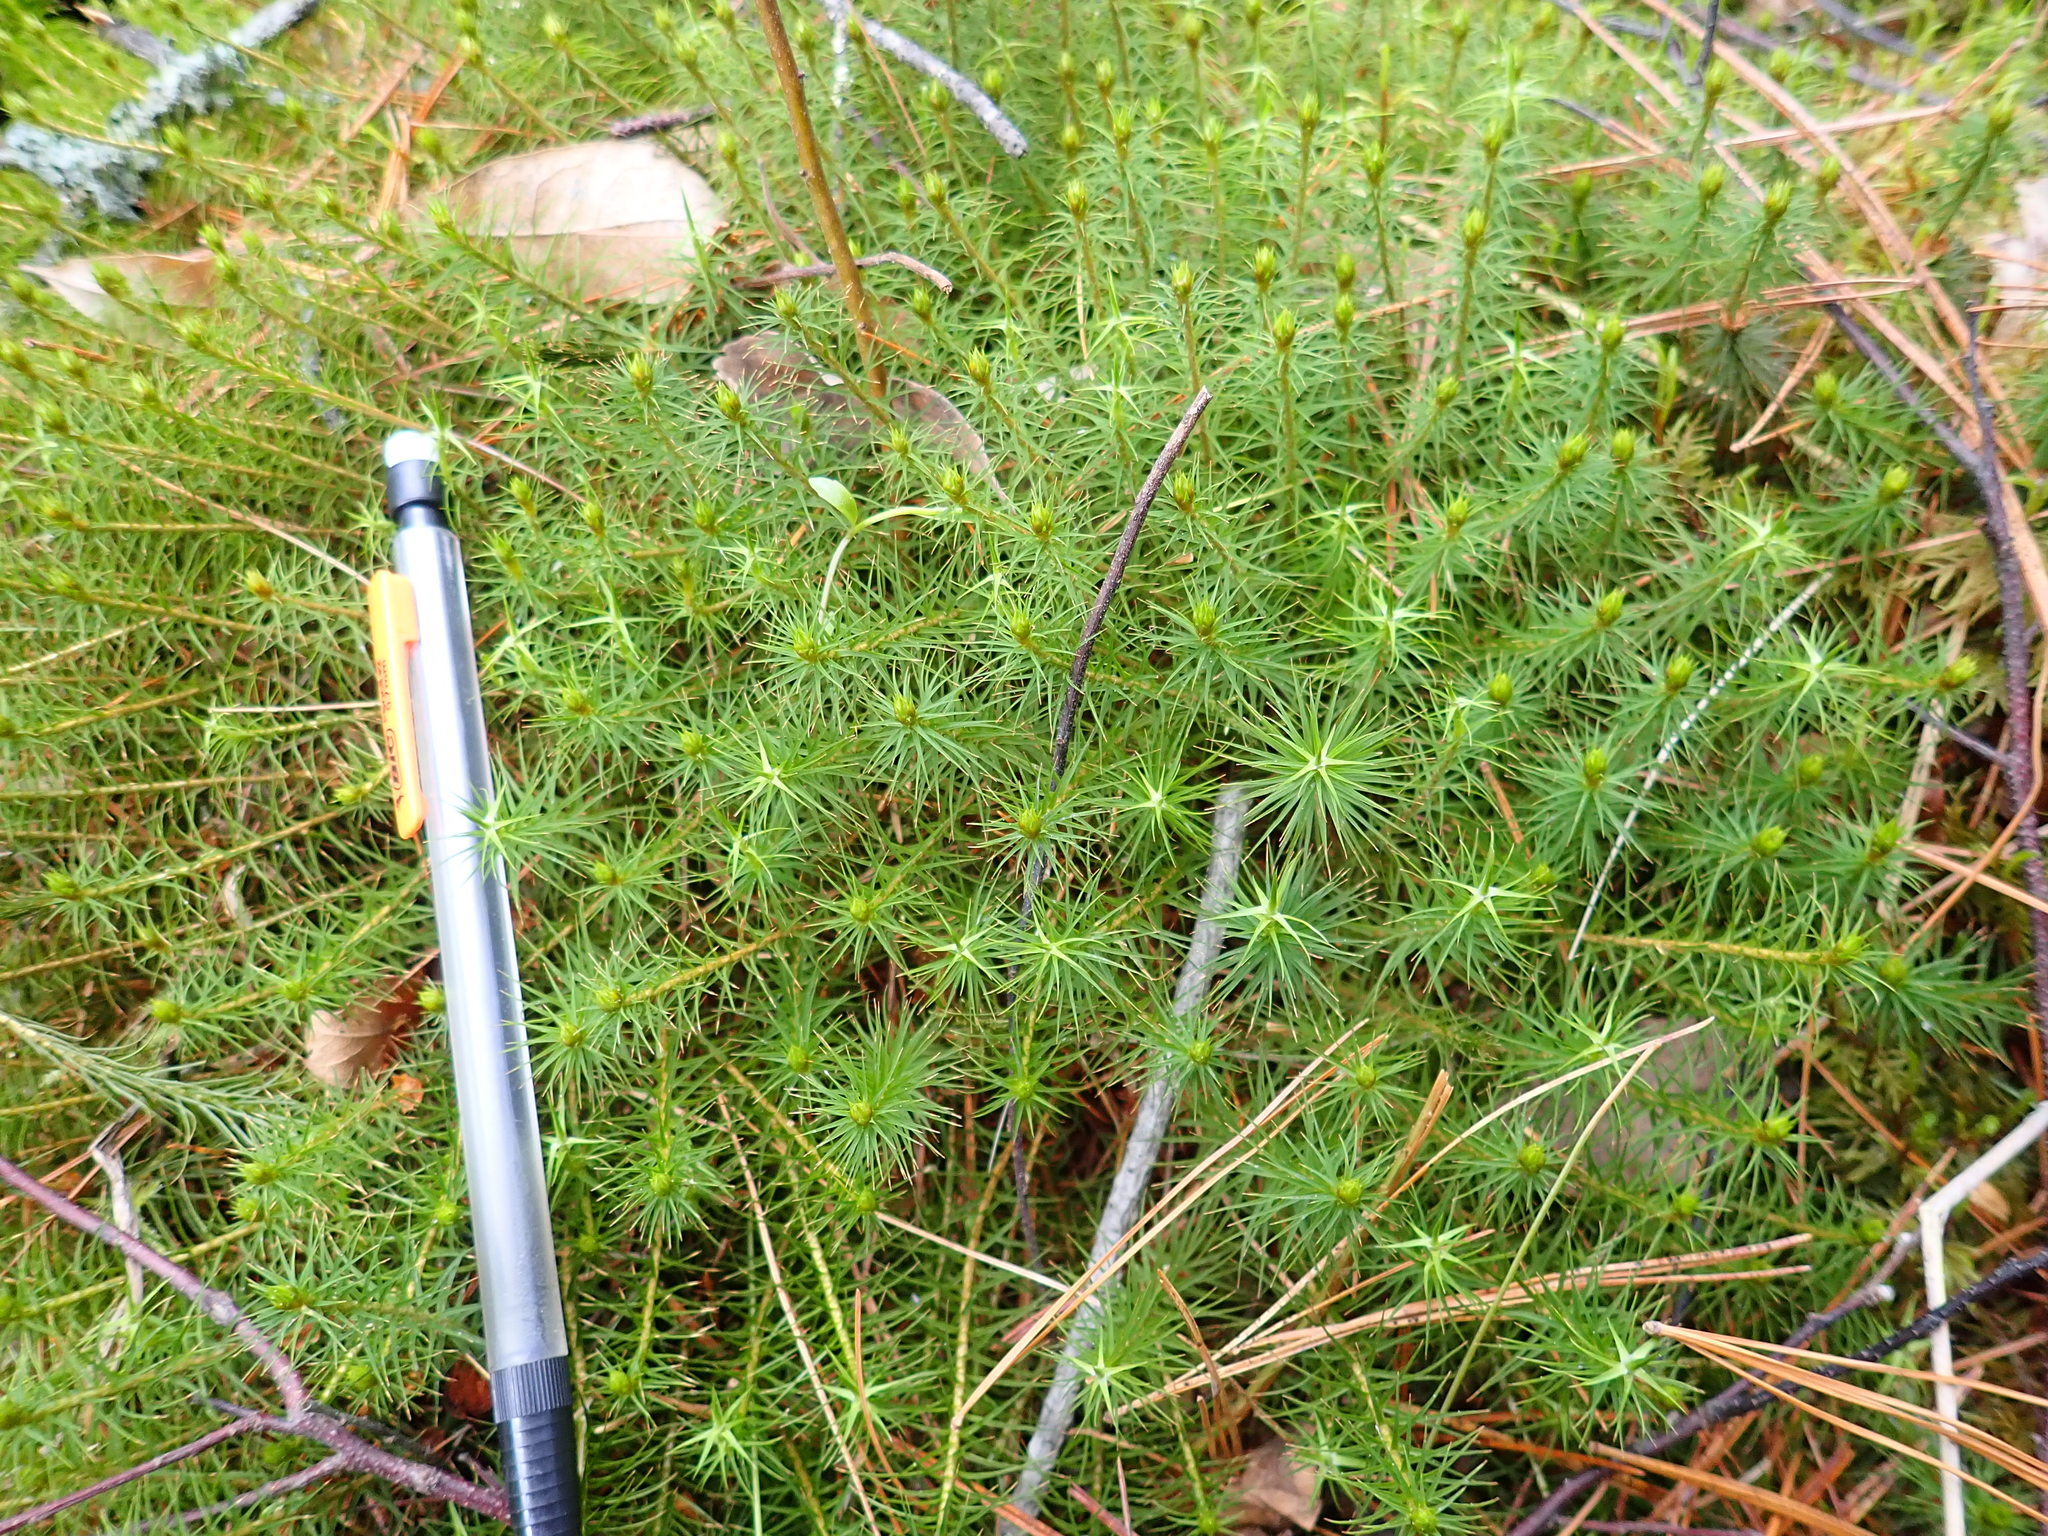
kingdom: Plantae
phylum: Bryophyta
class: Polytrichopsida
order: Polytrichales
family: Polytrichaceae
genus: Polytrichum
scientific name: Polytrichum juniperinum
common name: Juniper haircap moss
